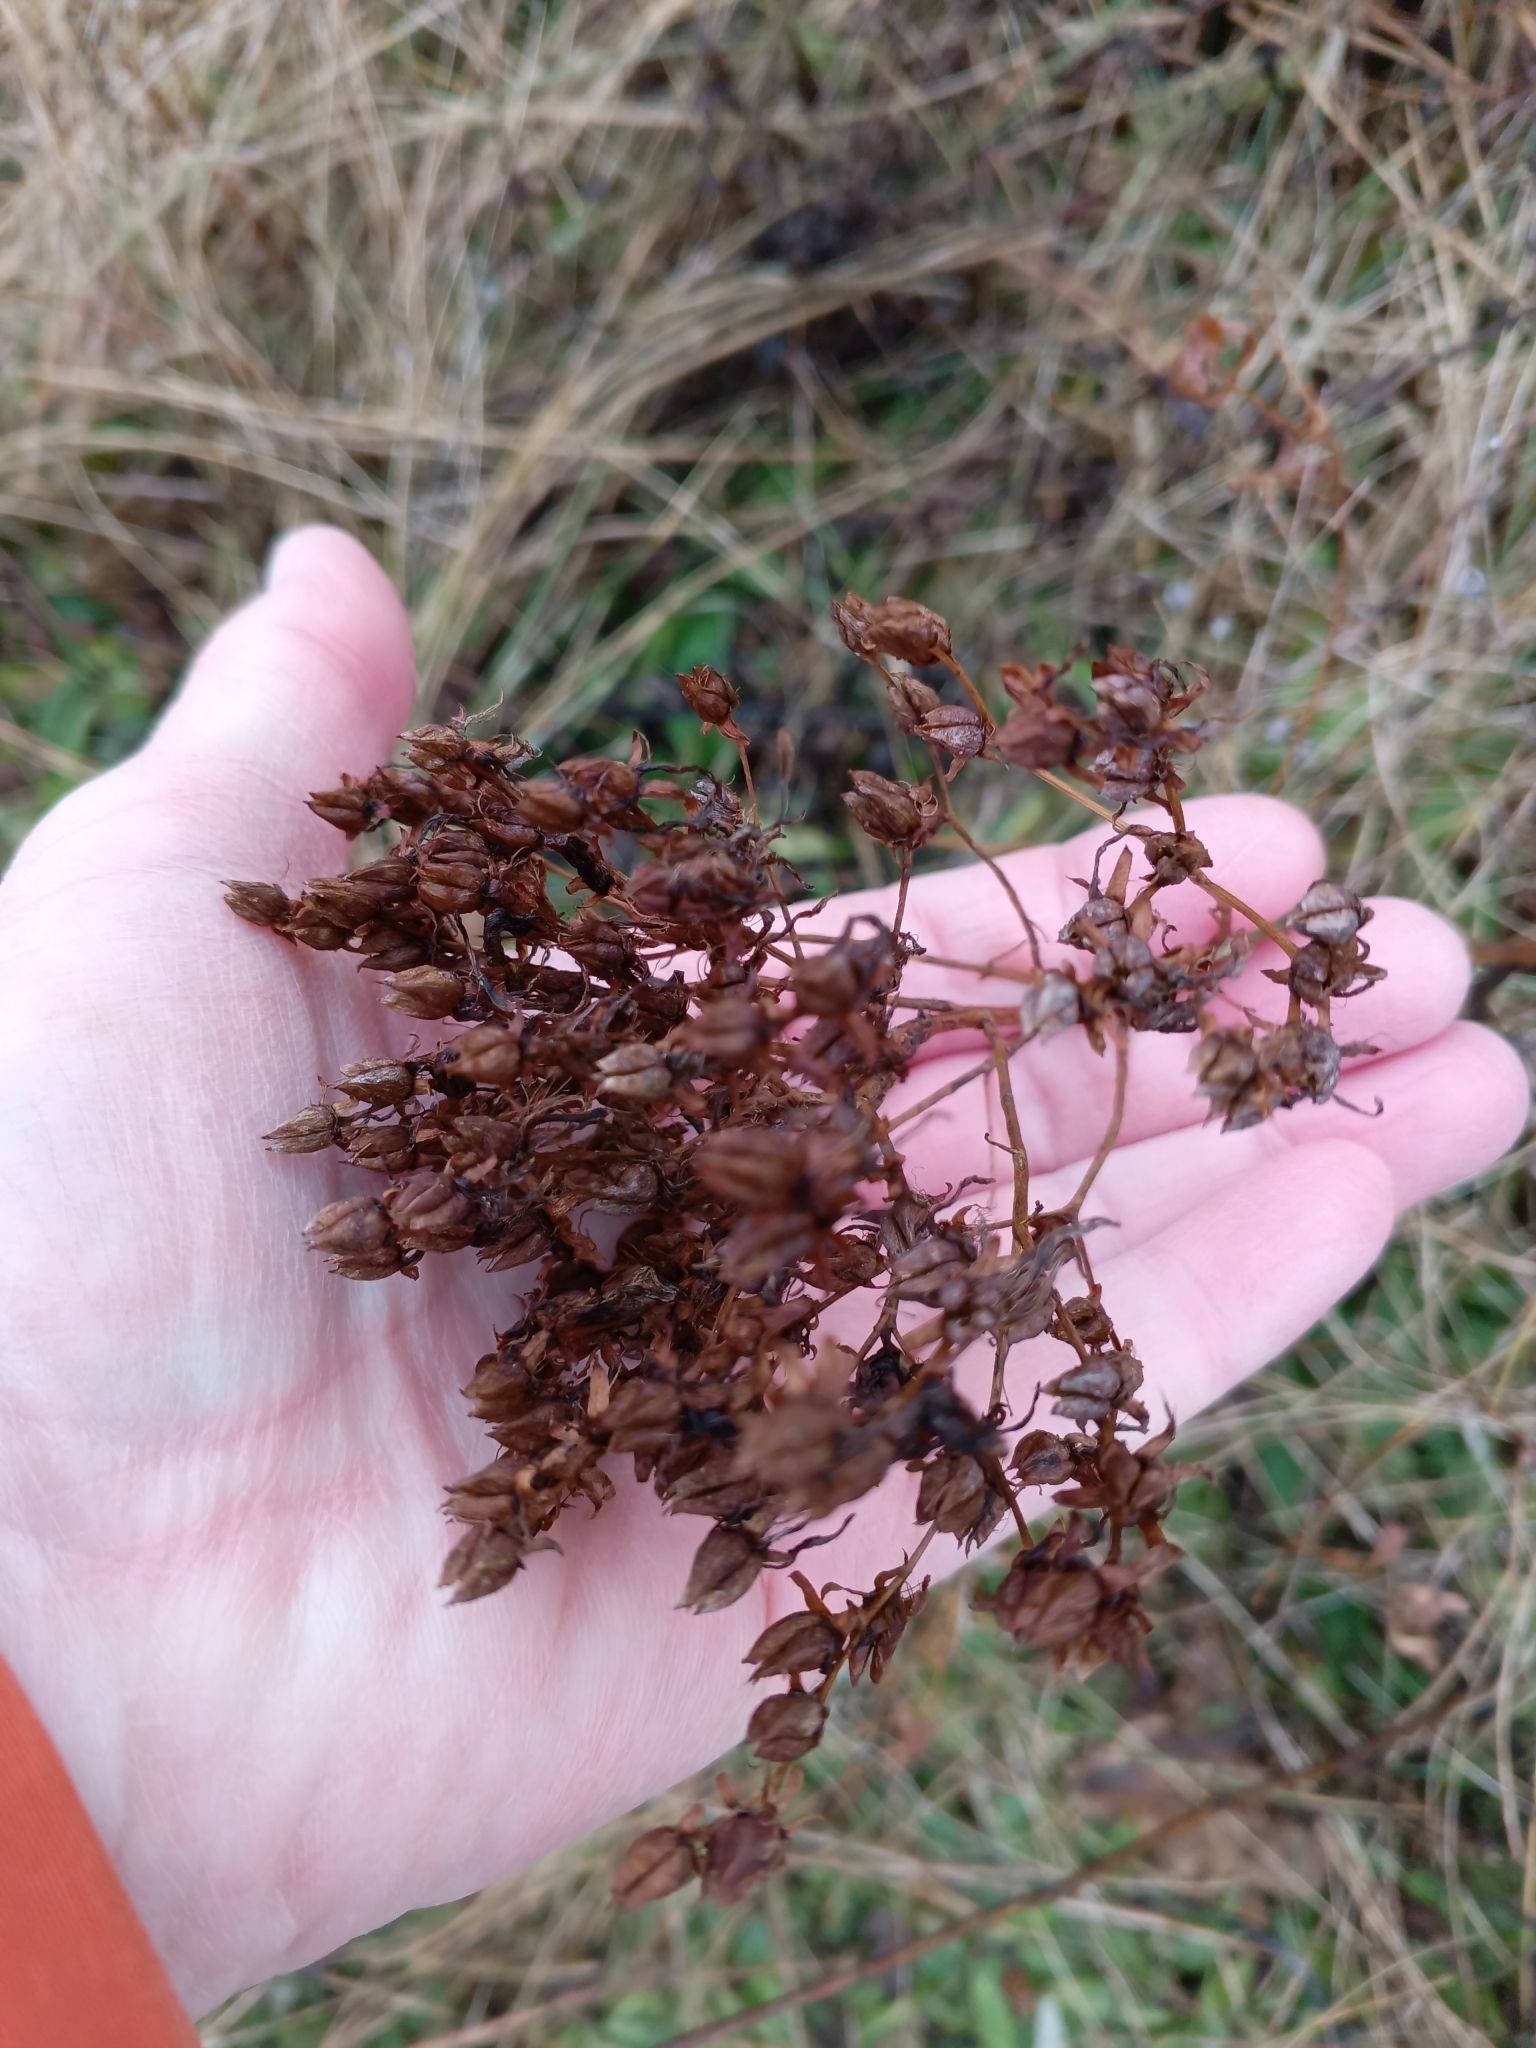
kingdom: Plantae
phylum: Tracheophyta
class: Magnoliopsida
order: Malpighiales
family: Hypericaceae
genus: Hypericum
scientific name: Hypericum perforatum
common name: Common st. johnswort
